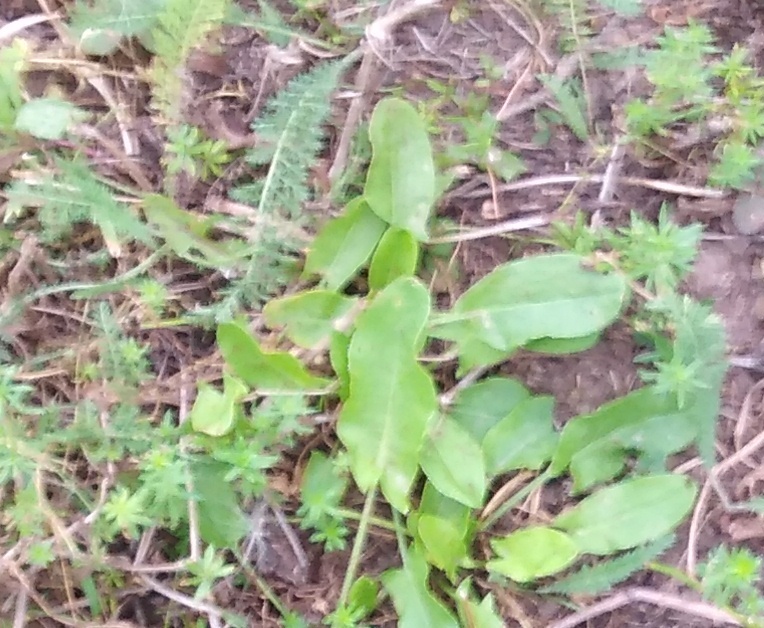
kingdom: Plantae
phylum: Tracheophyta
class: Magnoliopsida
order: Caryophyllales
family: Polygonaceae
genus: Rumex
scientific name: Rumex acetosa
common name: Garden sorrel
